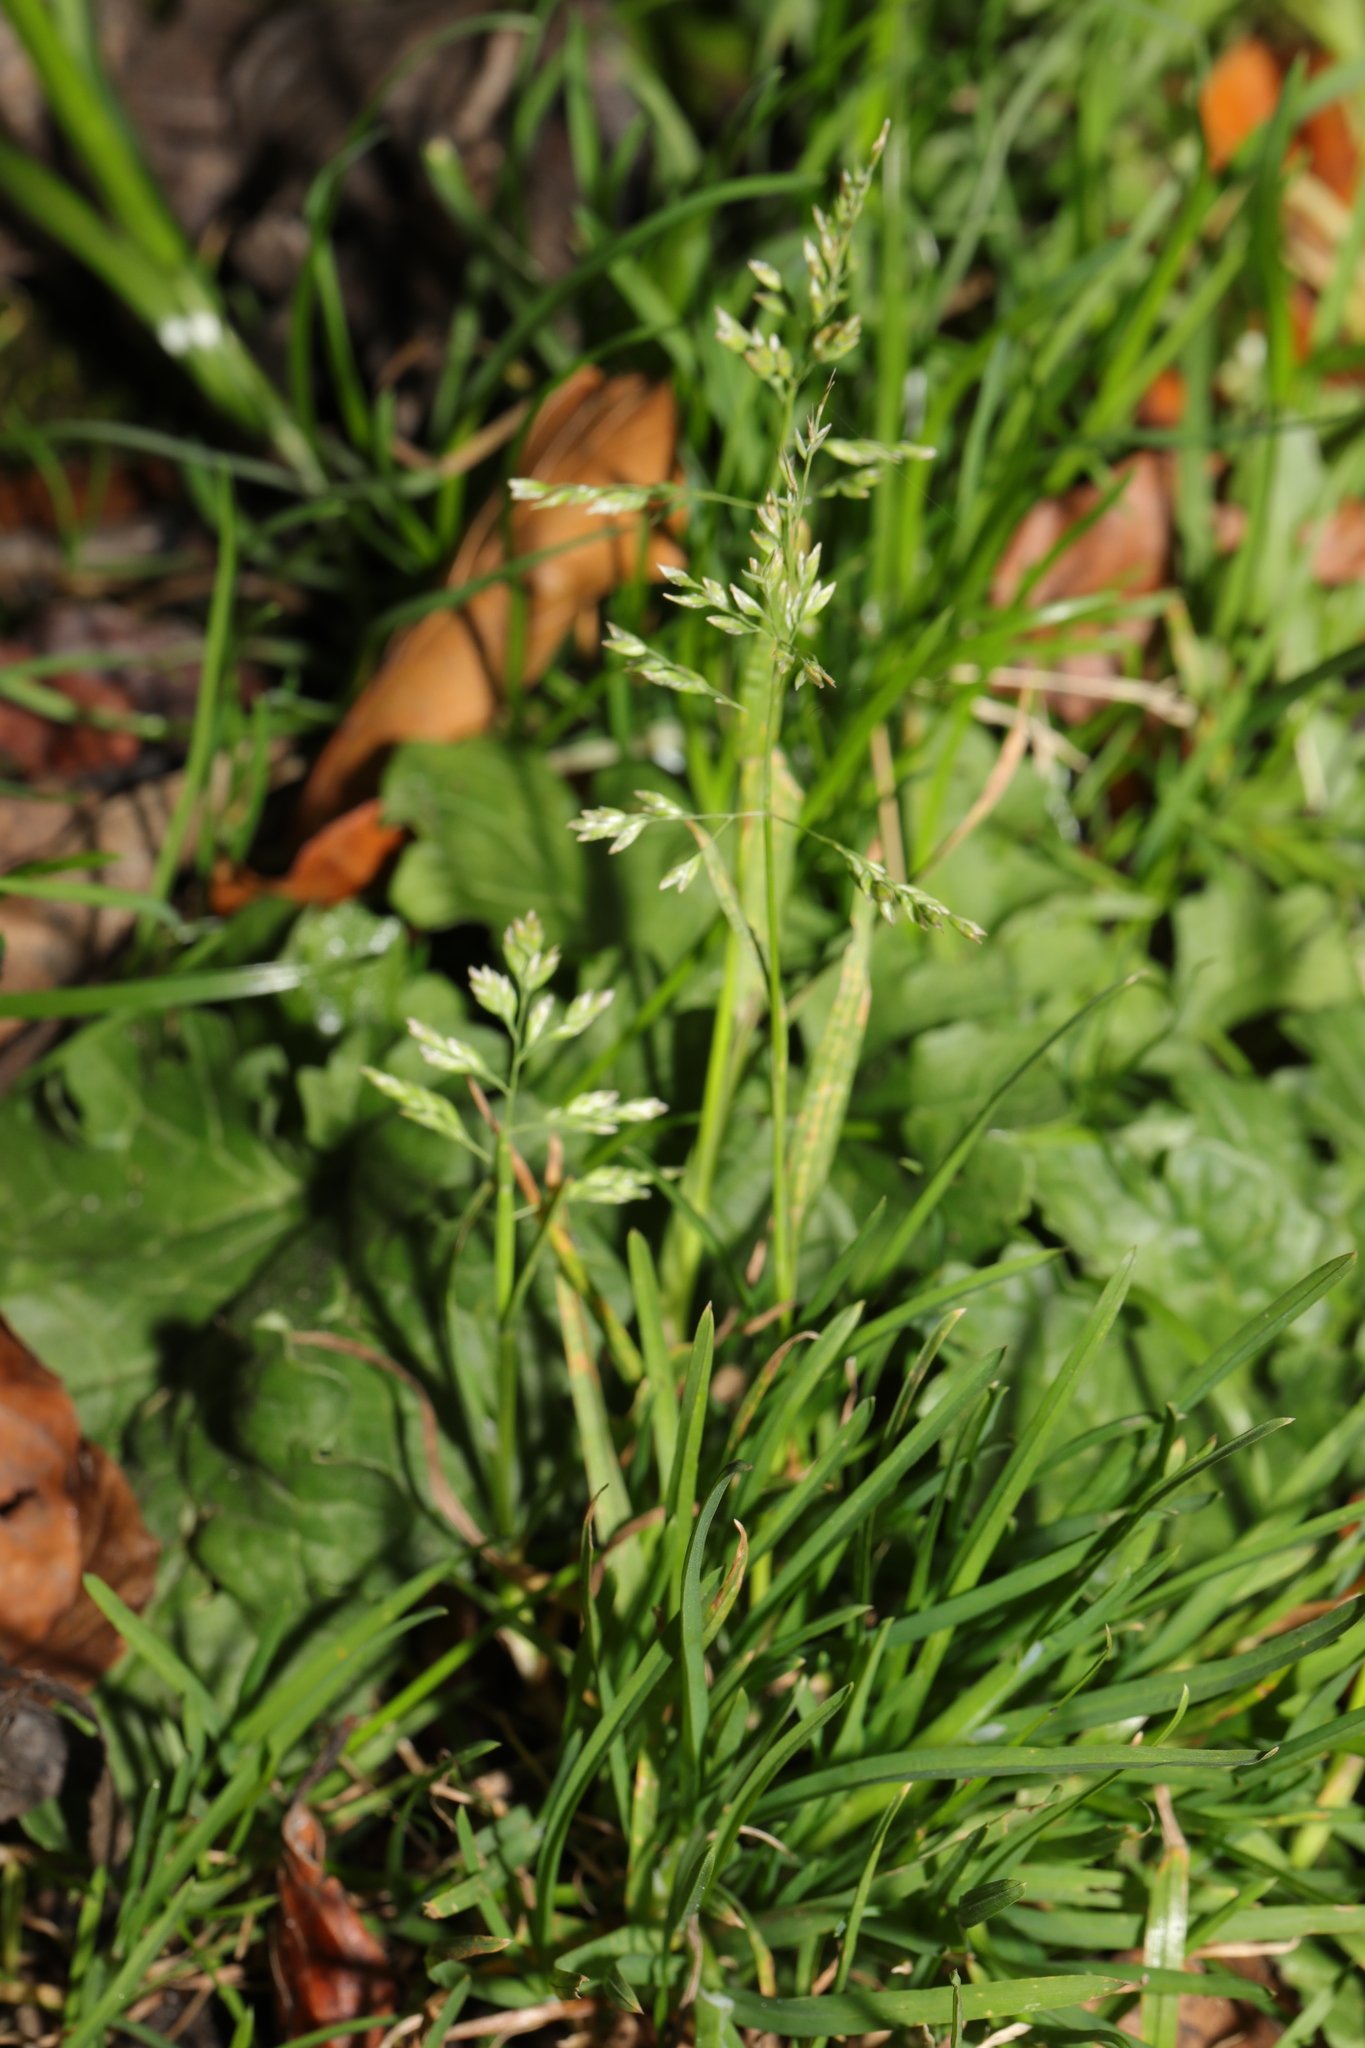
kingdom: Plantae
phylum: Tracheophyta
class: Liliopsida
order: Poales
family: Poaceae
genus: Poa
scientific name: Poa annua
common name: Annual bluegrass
